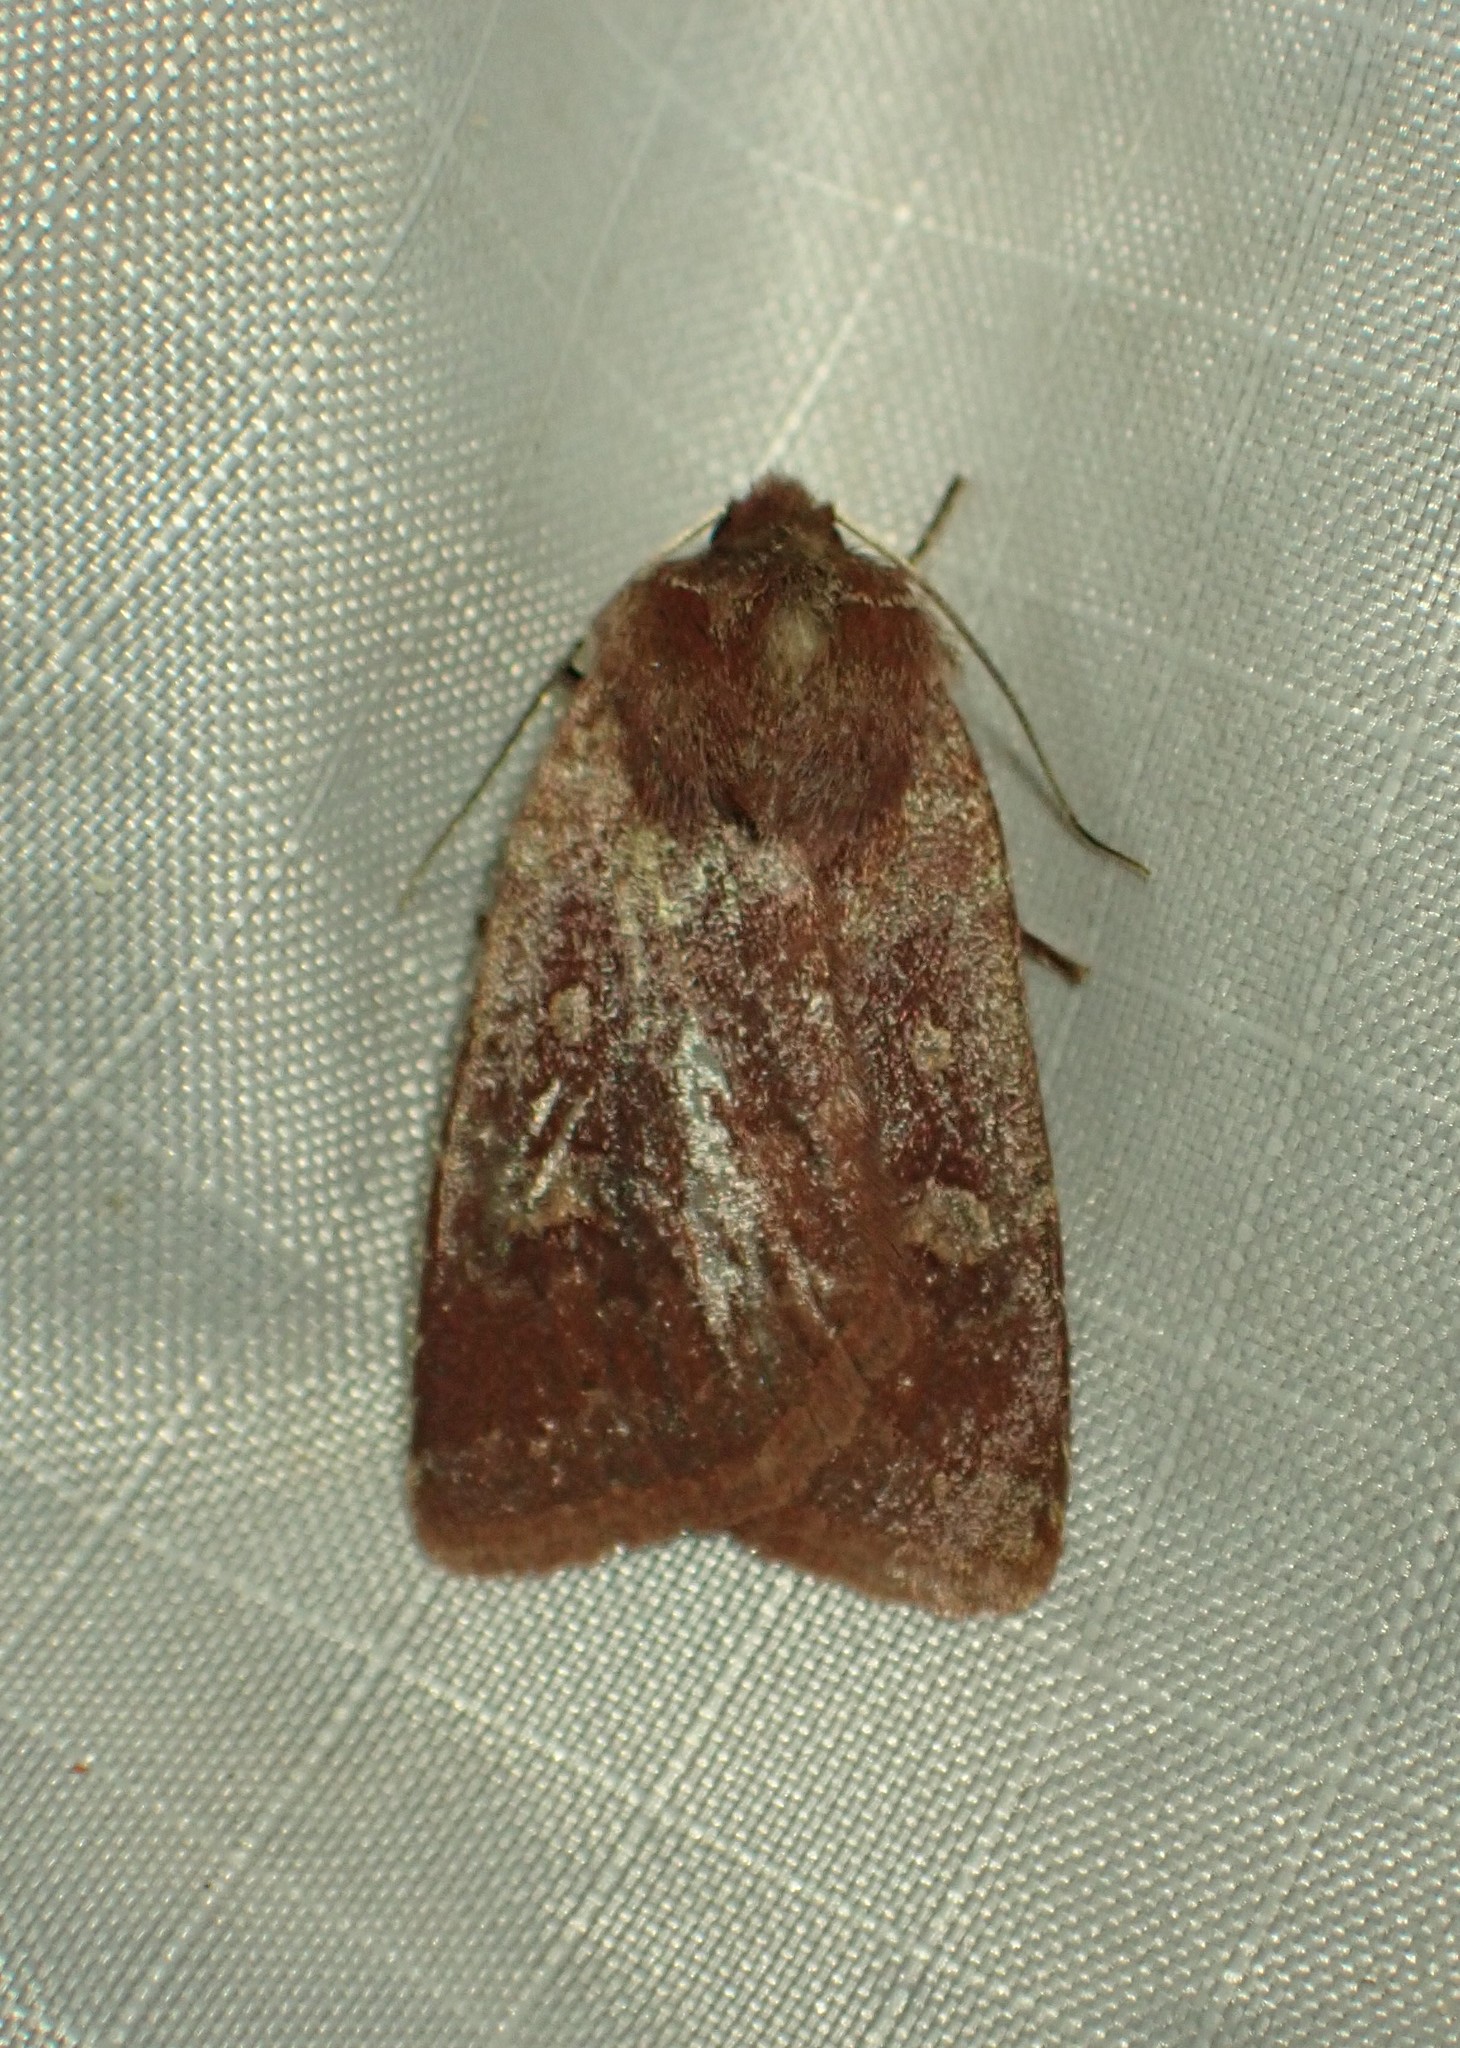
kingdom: Animalia
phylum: Arthropoda
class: Insecta
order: Lepidoptera
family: Noctuidae
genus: Cerastis
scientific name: Cerastis tenebrifera
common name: Reddish speckled dart
